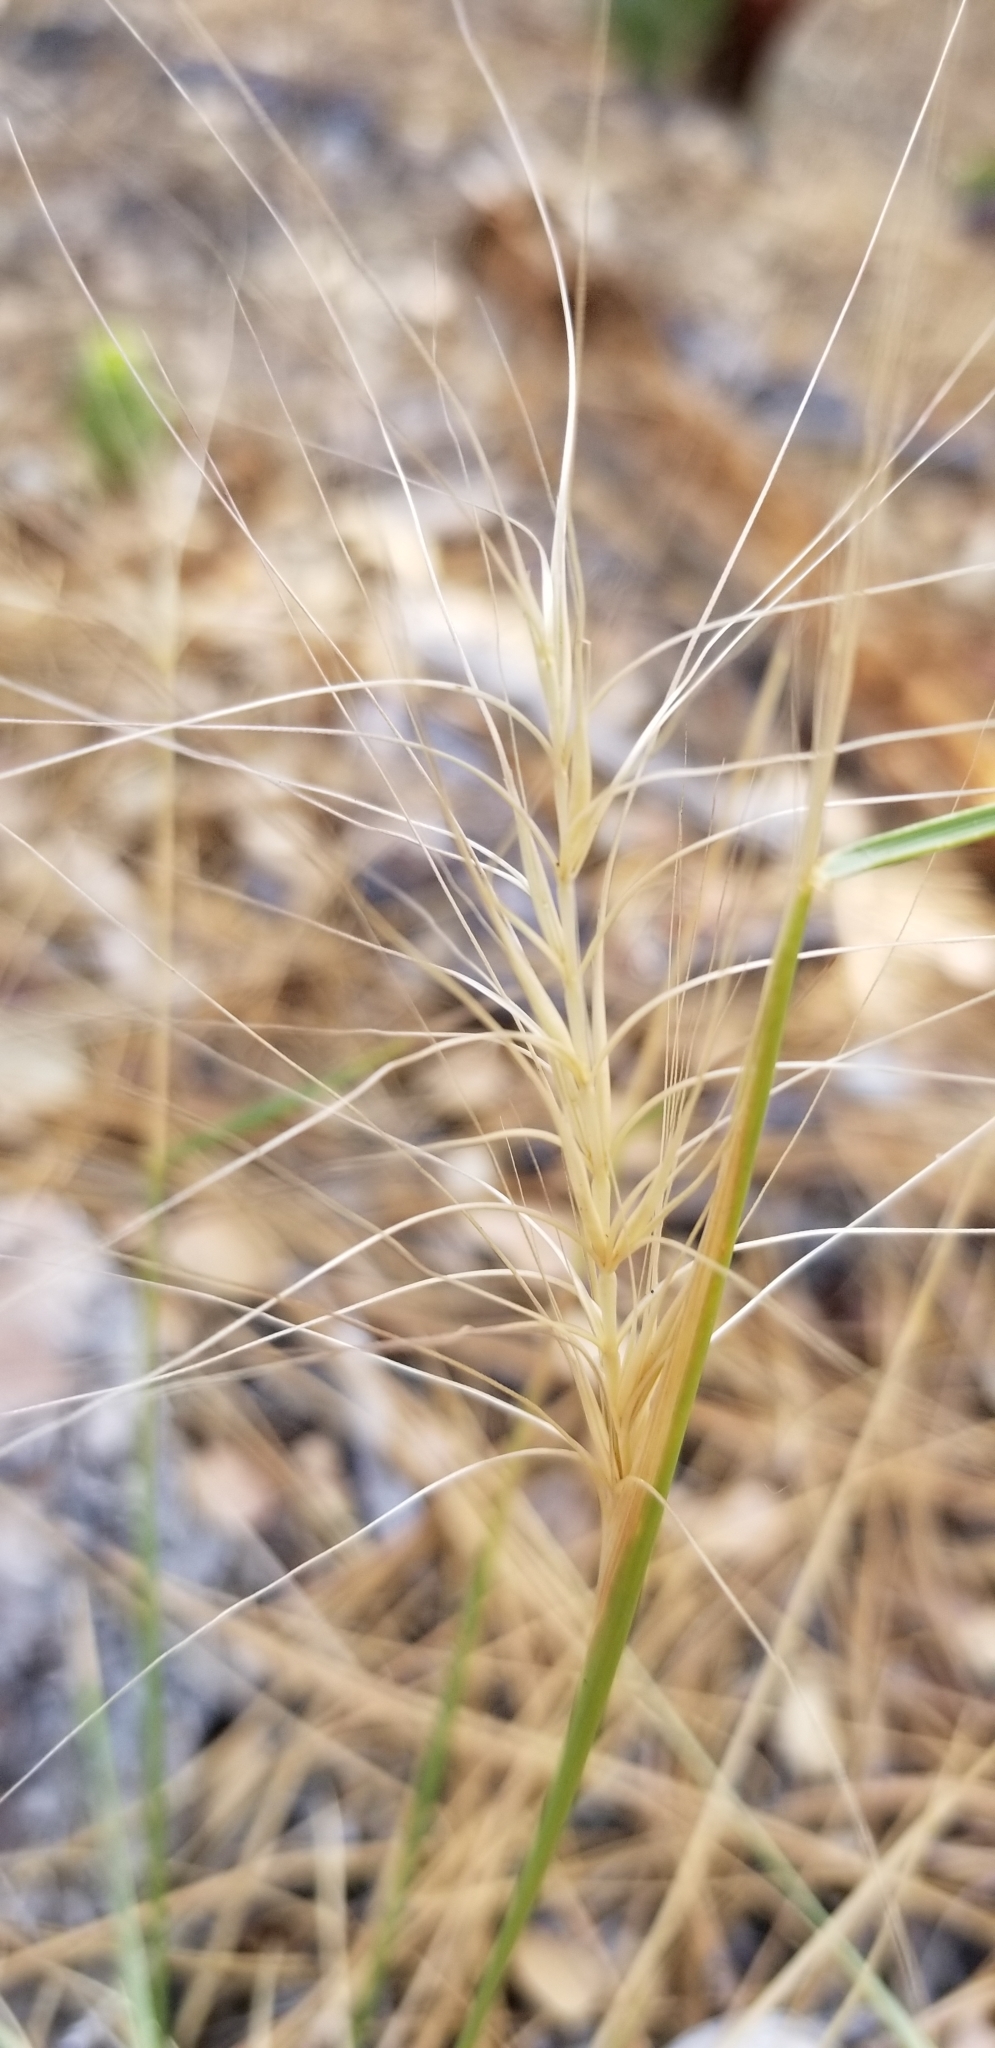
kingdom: Plantae
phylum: Tracheophyta
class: Liliopsida
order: Poales
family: Poaceae
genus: Elymus
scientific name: Elymus elymoides
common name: Bottlebrush squirreltail
